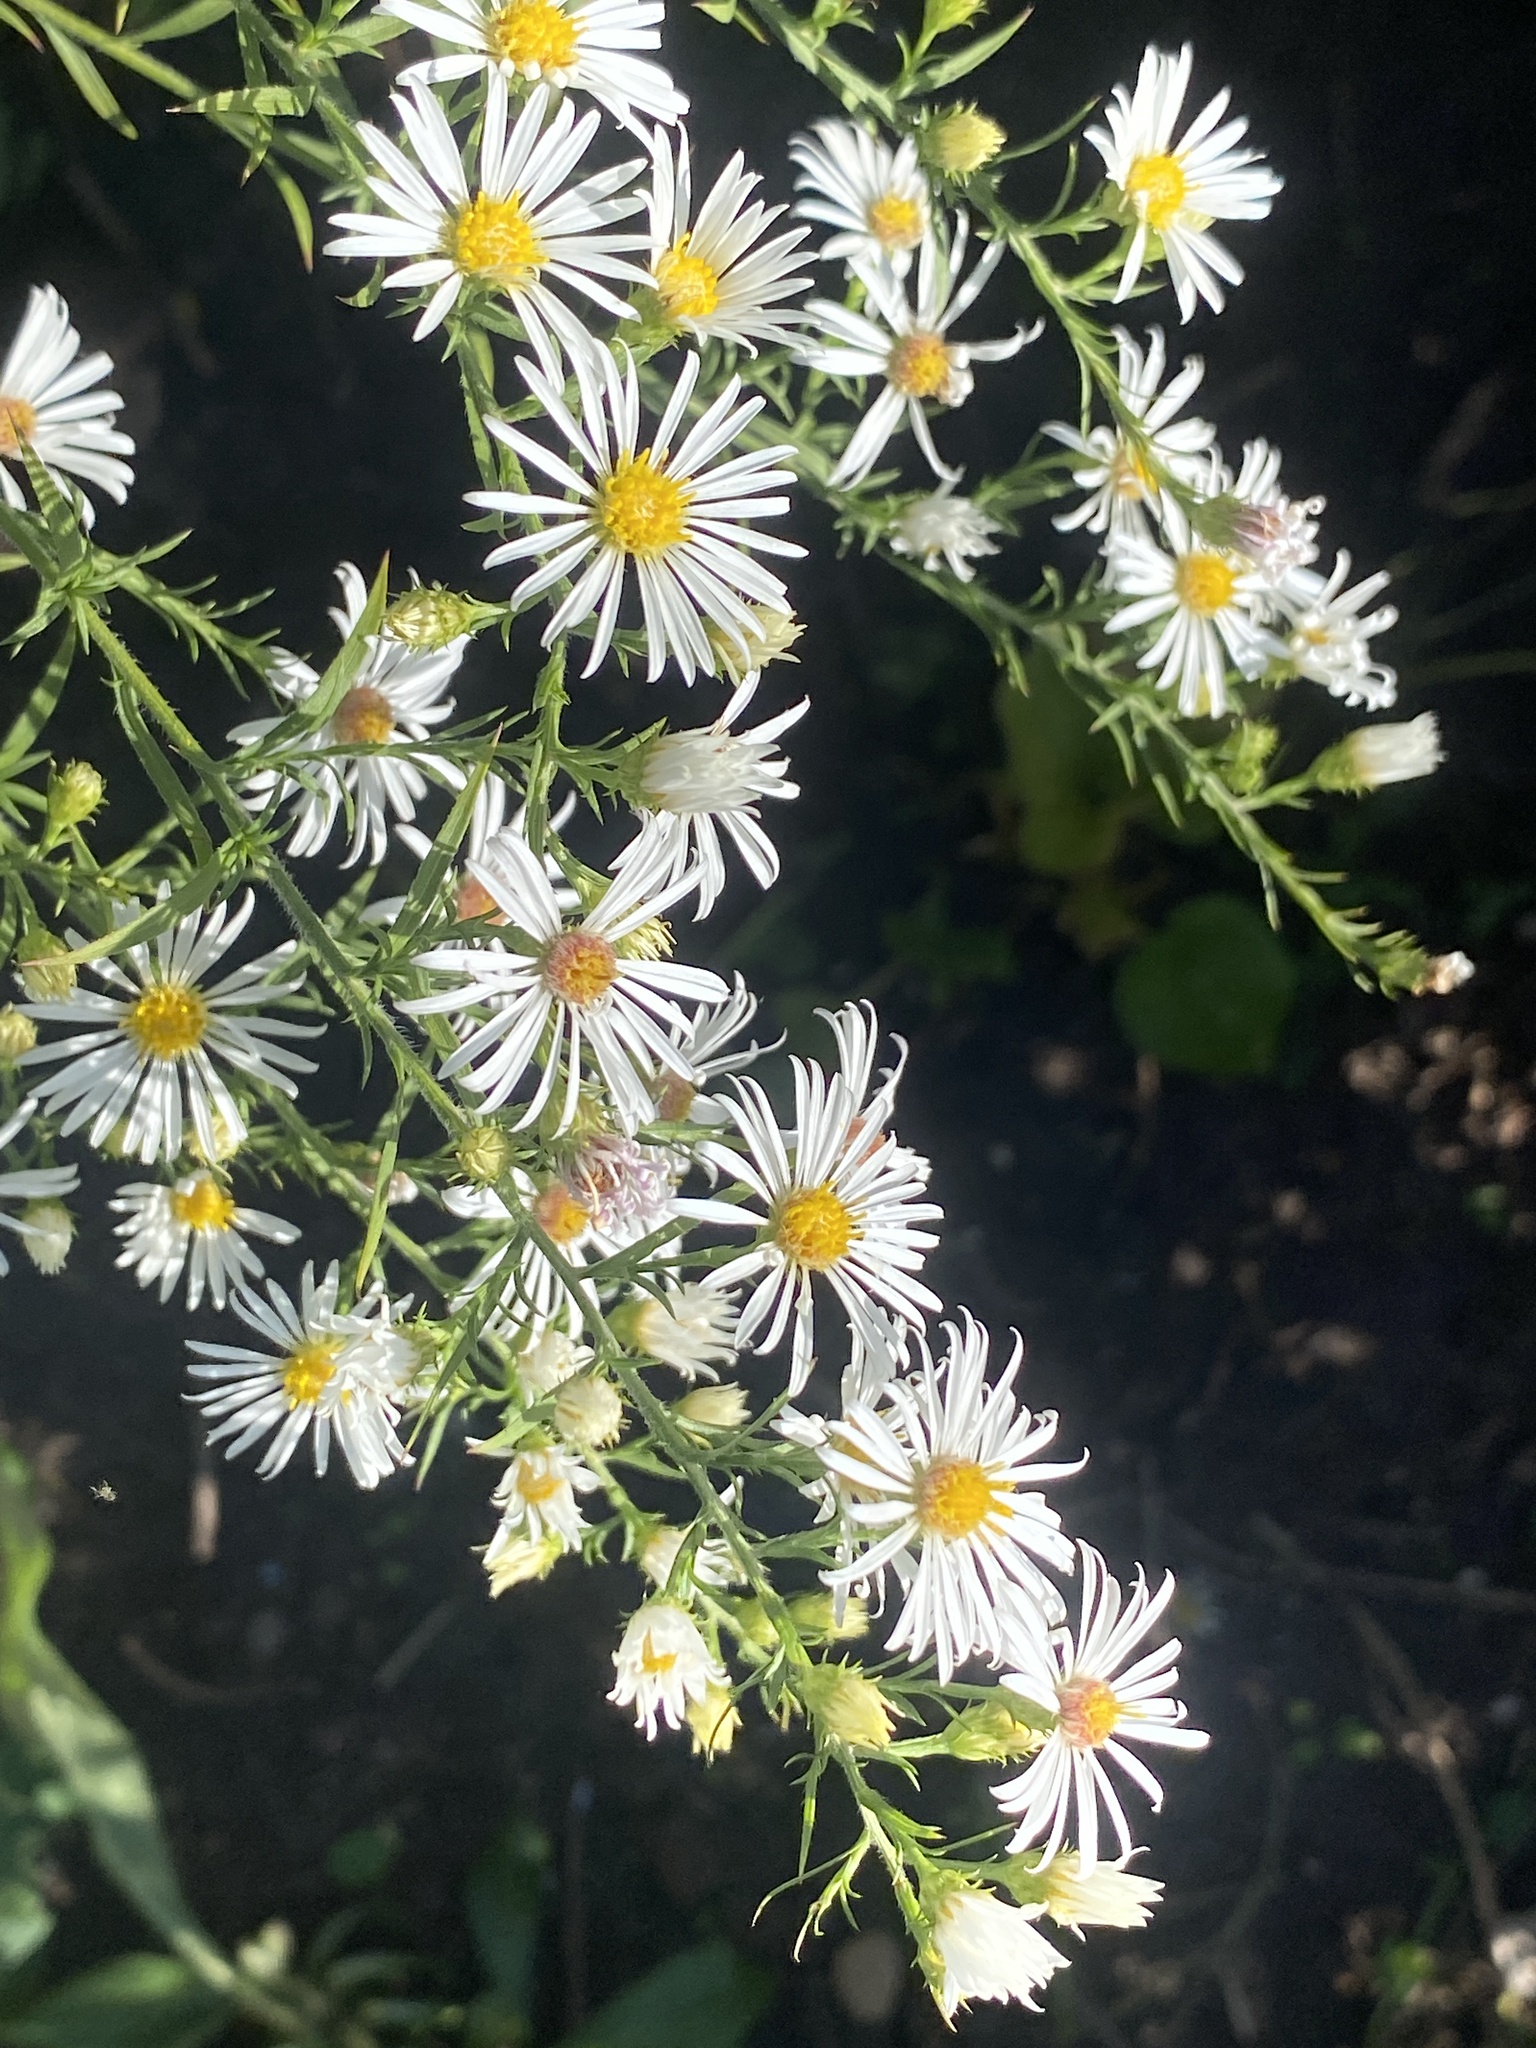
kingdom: Plantae
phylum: Tracheophyta
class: Magnoliopsida
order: Asterales
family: Asteraceae
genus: Symphyotrichum
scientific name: Symphyotrichum pilosum
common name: Awl aster
